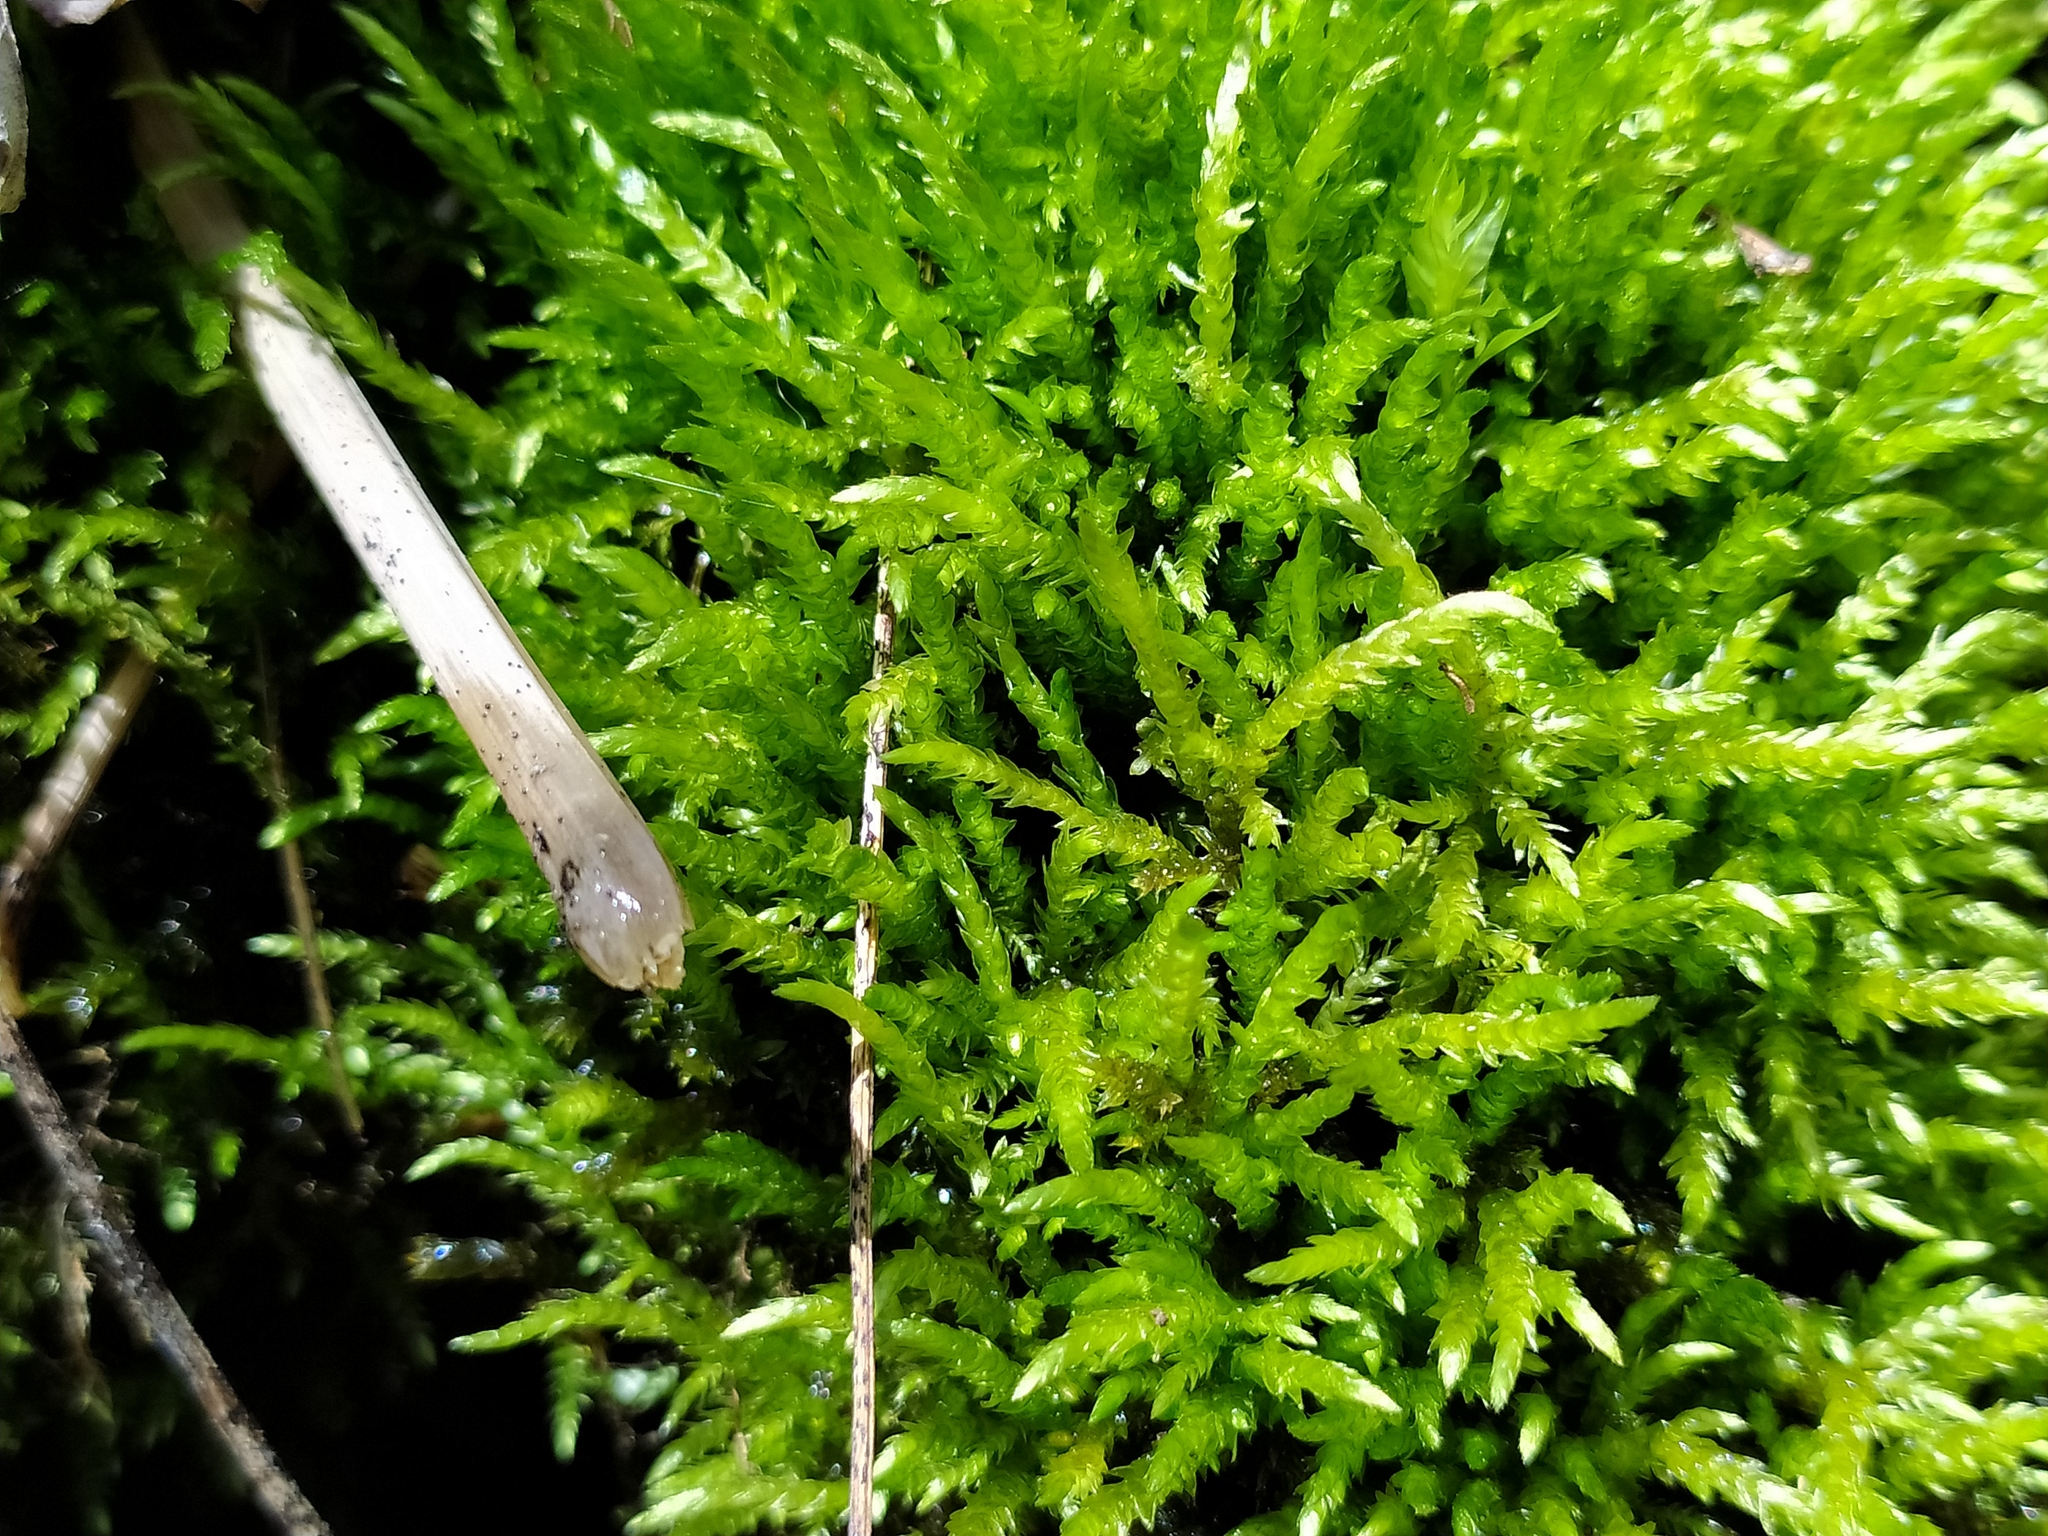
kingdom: Plantae
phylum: Bryophyta
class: Bryopsida
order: Hypnales
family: Brachytheciaceae
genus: Brachythecium
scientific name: Brachythecium rivulare
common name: River ragged moss
